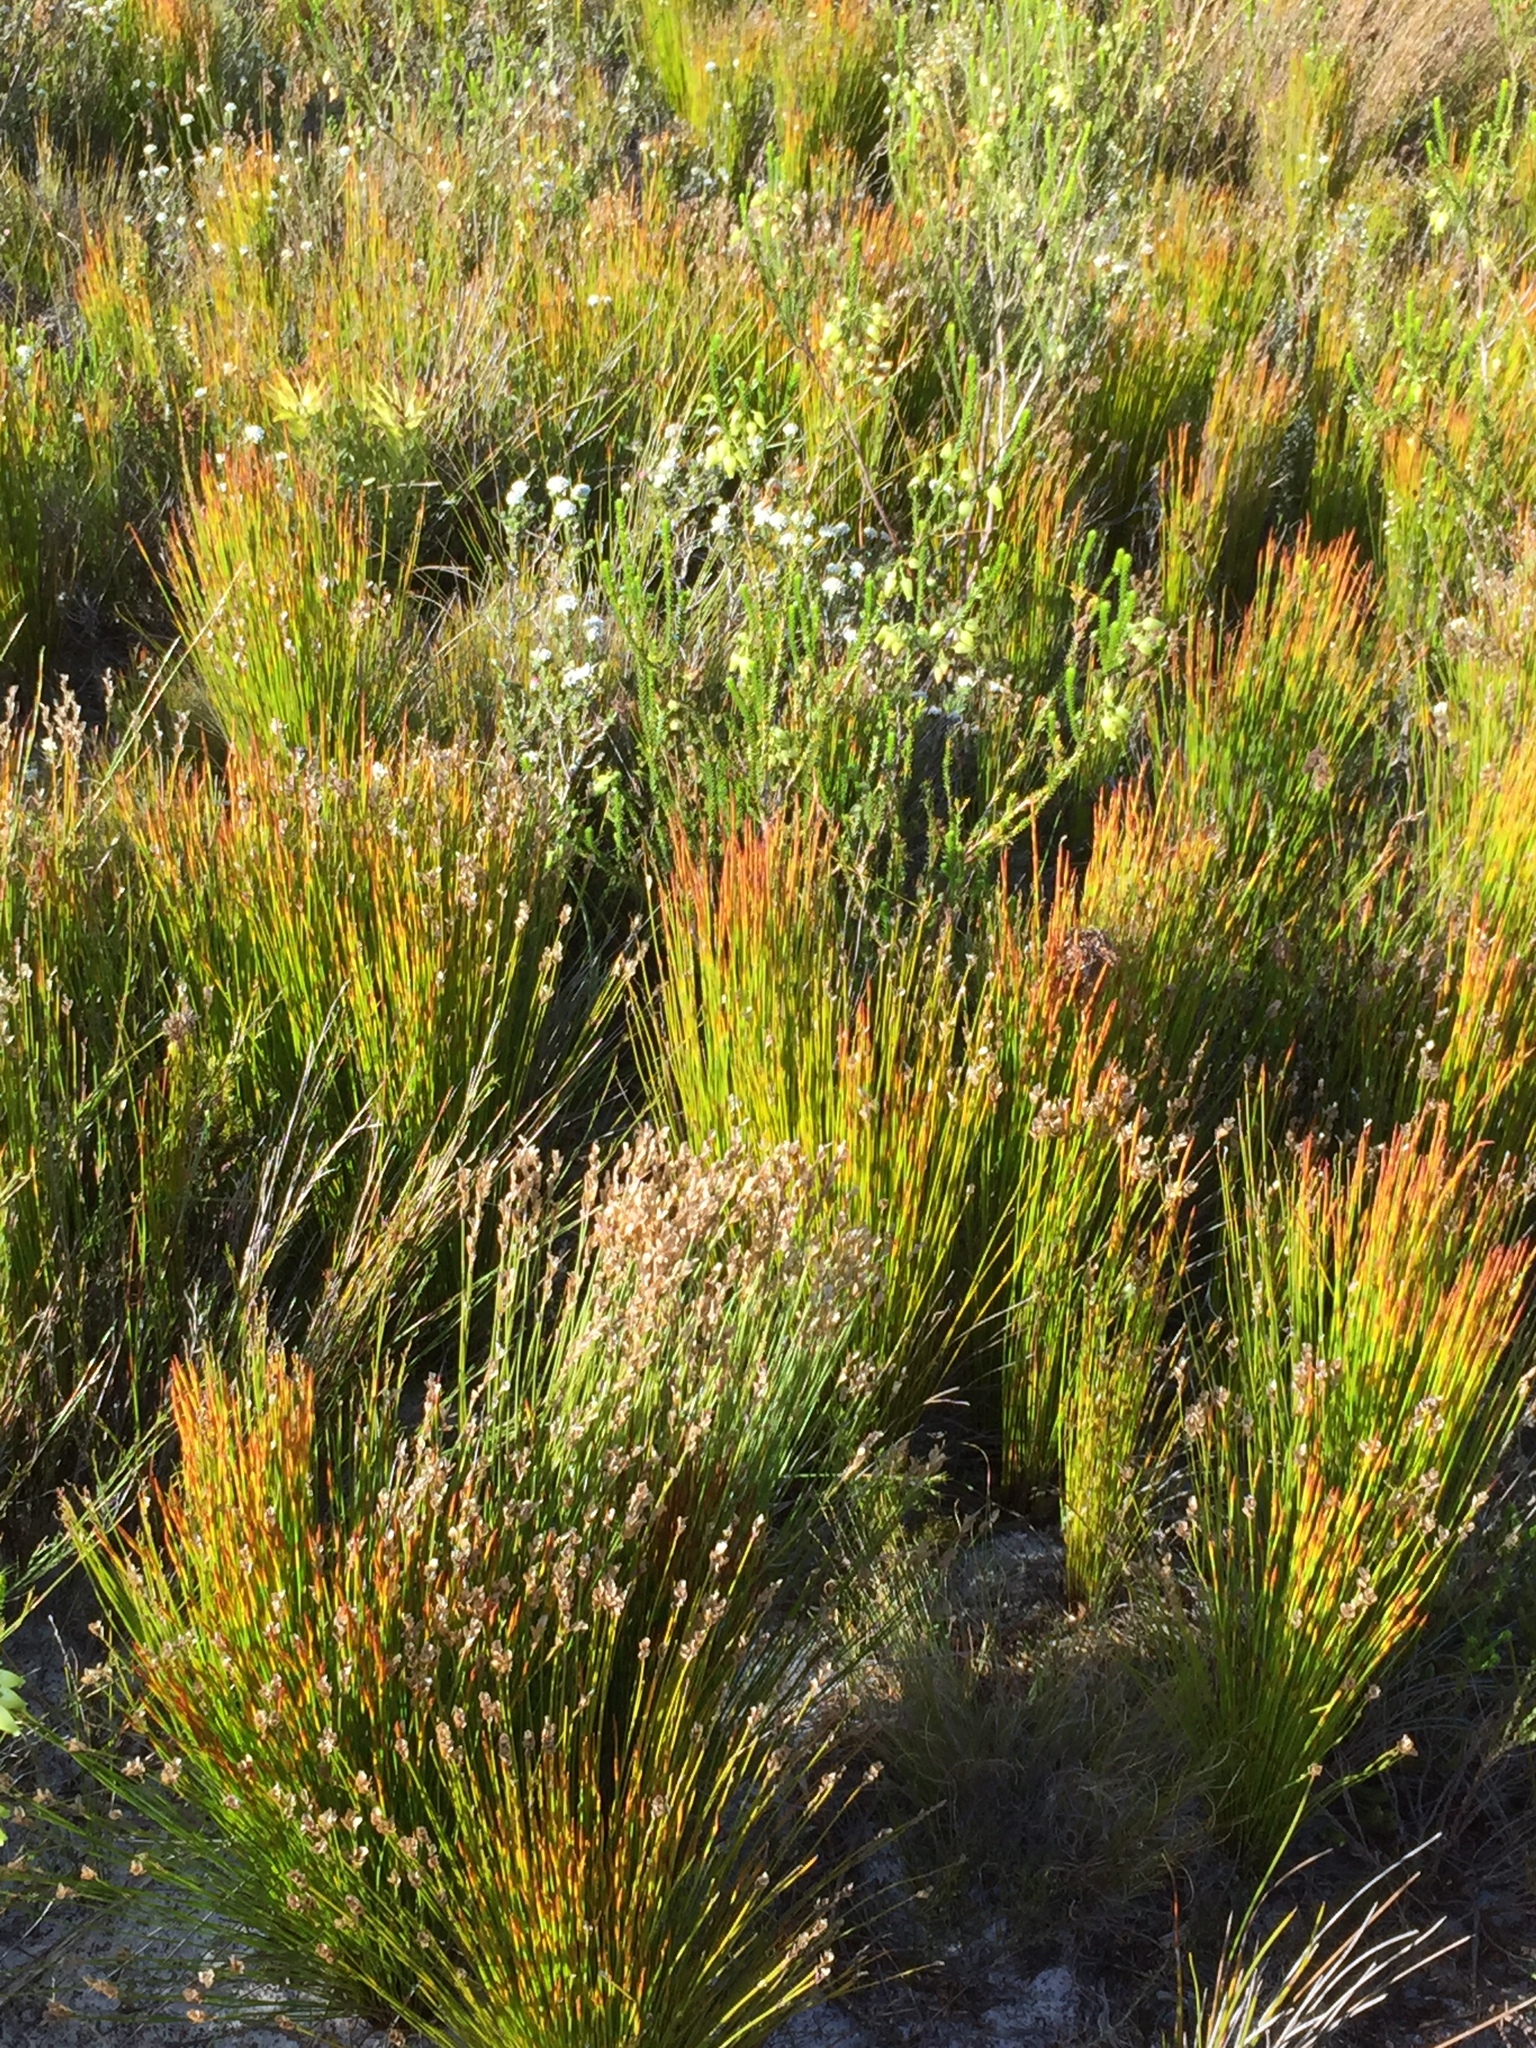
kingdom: Plantae
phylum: Tracheophyta
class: Magnoliopsida
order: Ericales
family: Ericaceae
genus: Erica
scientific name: Erica urna-viridis
